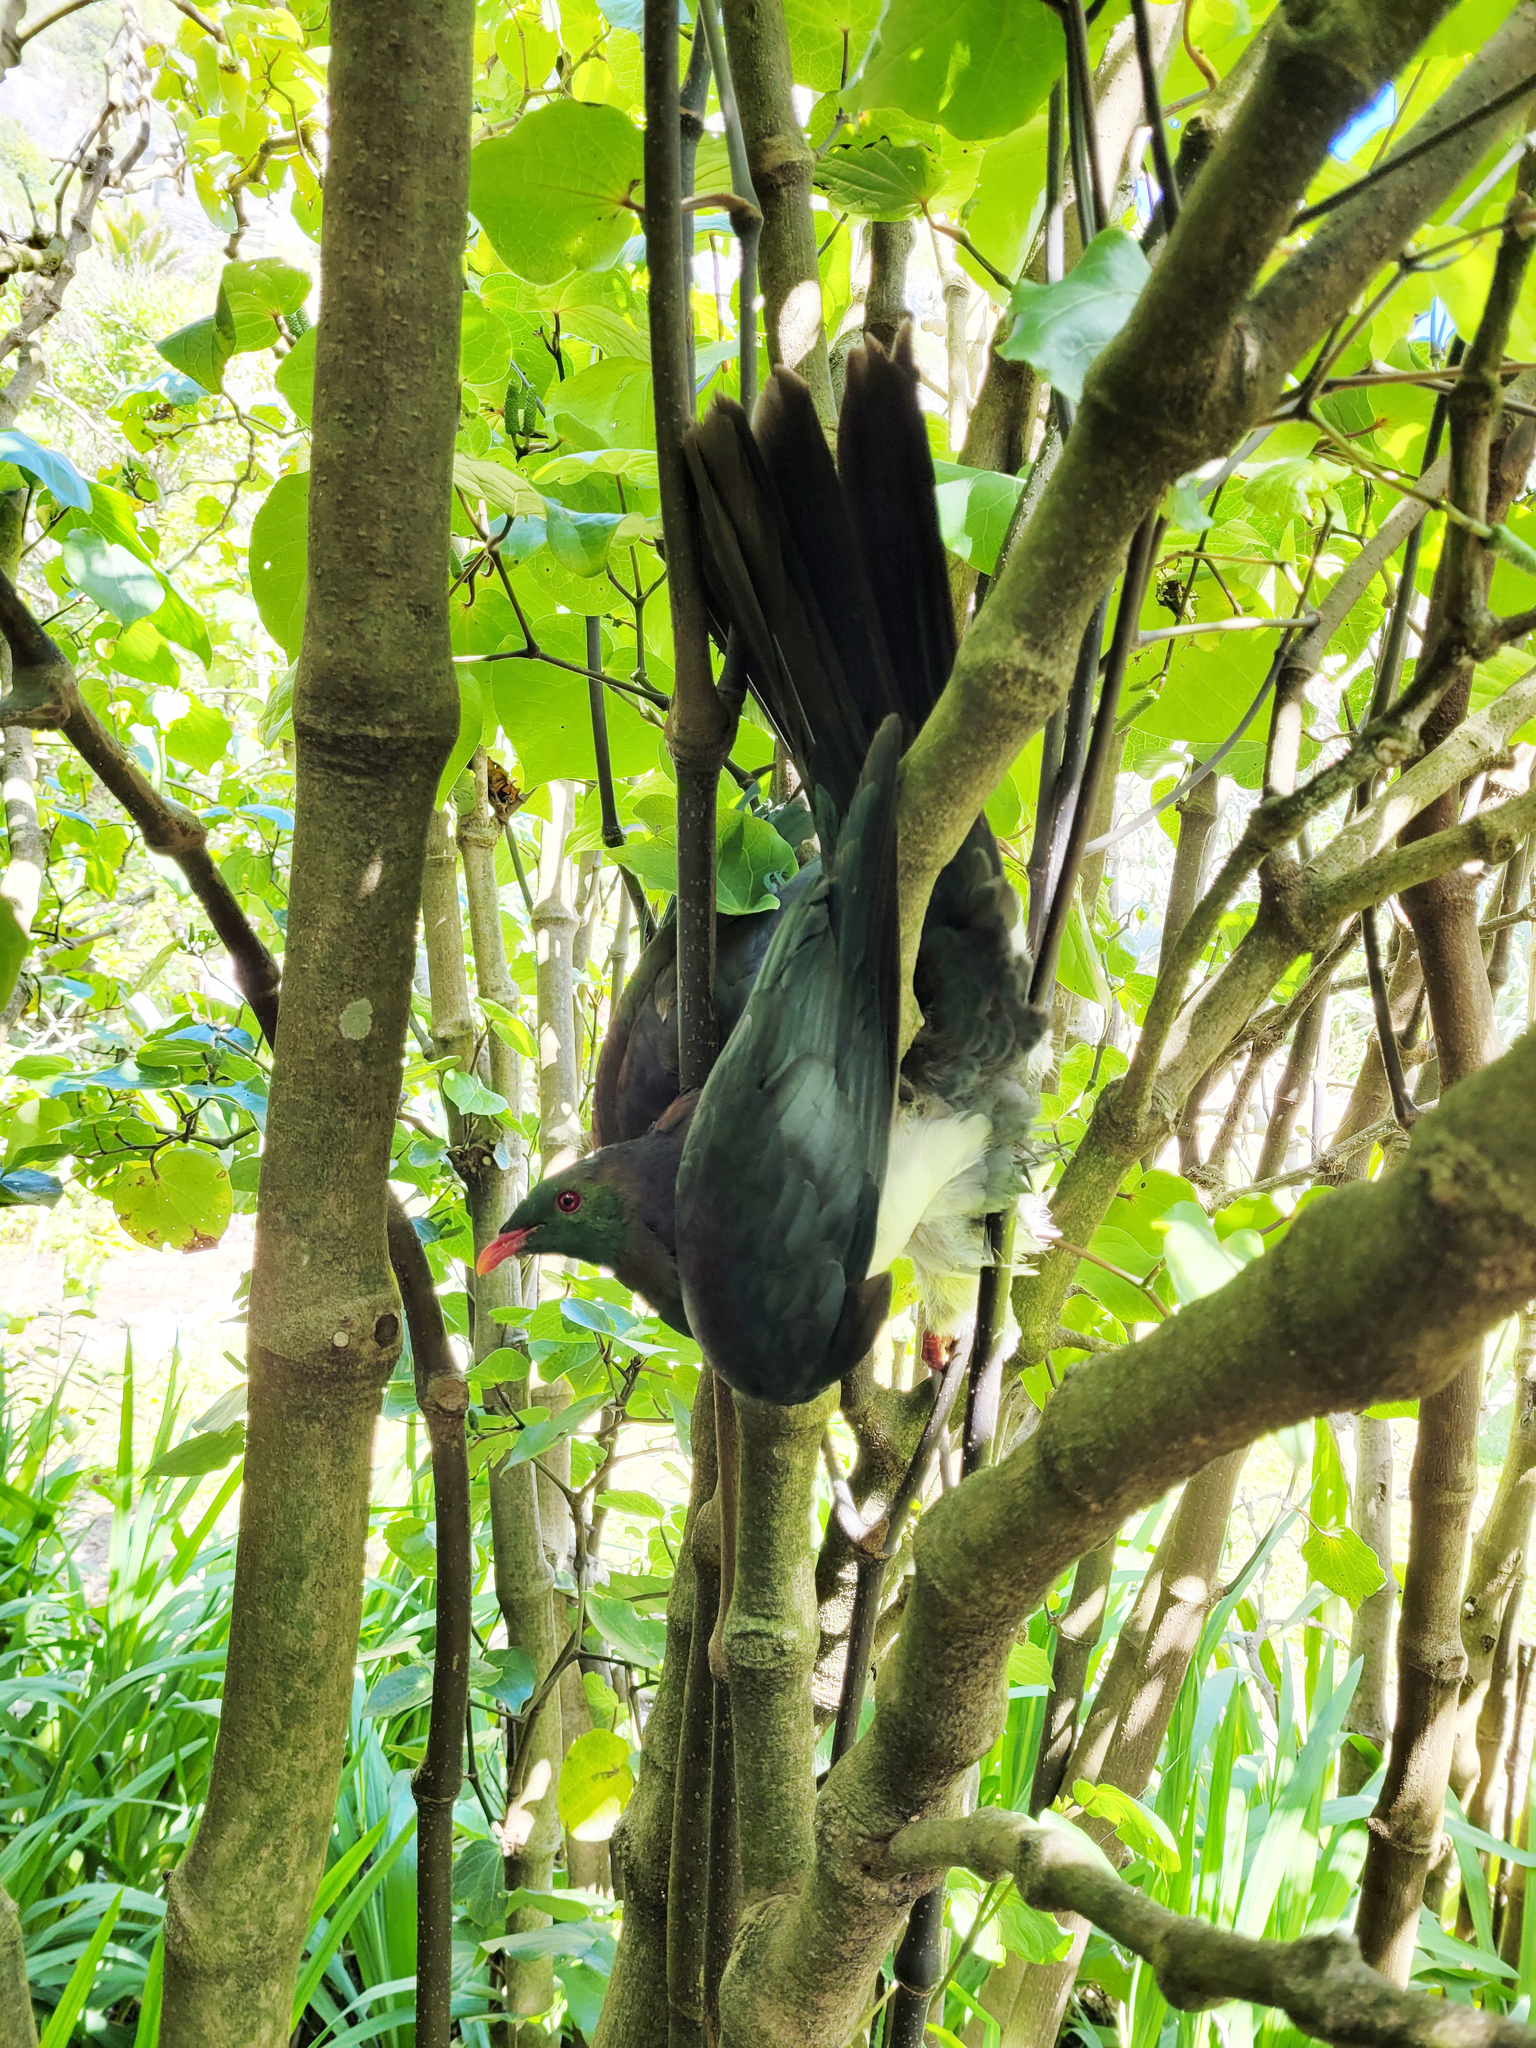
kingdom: Animalia
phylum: Chordata
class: Aves
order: Columbiformes
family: Columbidae
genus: Hemiphaga
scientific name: Hemiphaga novaeseelandiae
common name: New zealand pigeon
